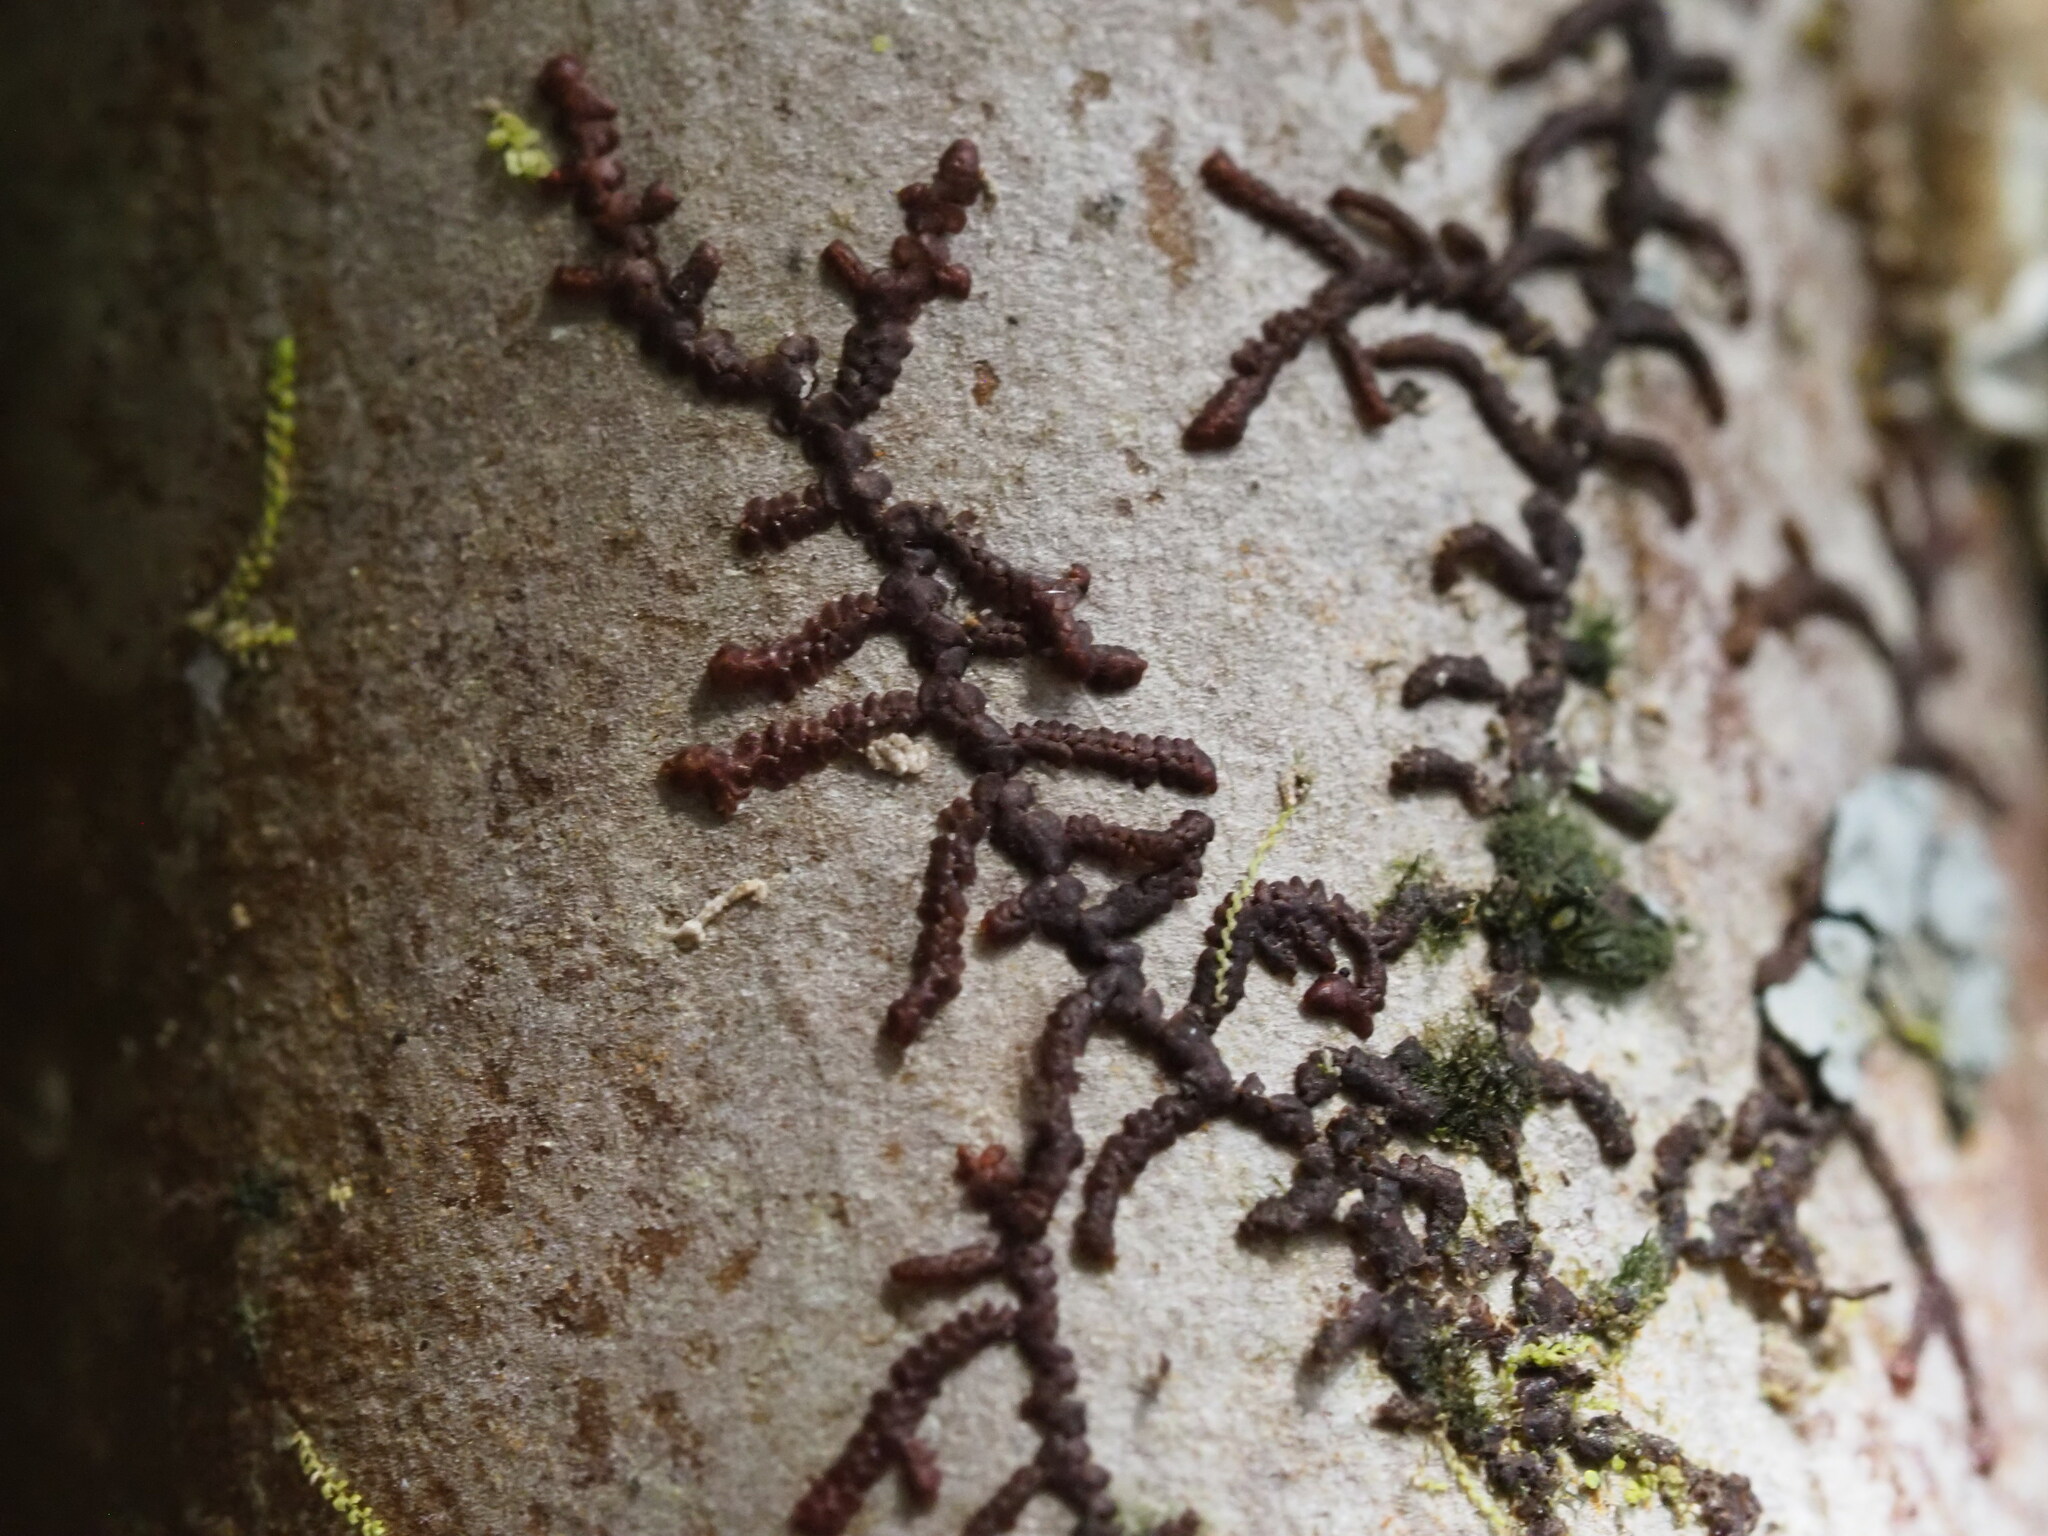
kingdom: Plantae
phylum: Marchantiophyta
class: Jungermanniopsida
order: Porellales
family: Frullaniaceae
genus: Frullania
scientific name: Frullania meyeniana
